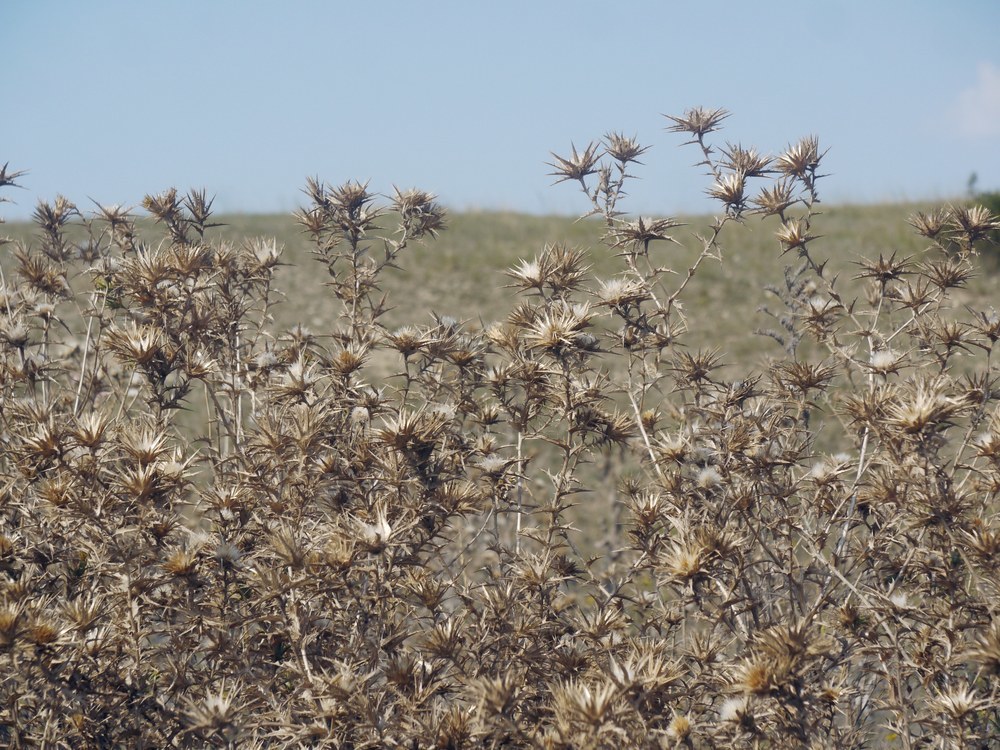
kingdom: Plantae
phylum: Tracheophyta
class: Magnoliopsida
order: Asterales
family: Asteraceae
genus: Carthamus
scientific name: Carthamus lanatus
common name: Downy safflower
